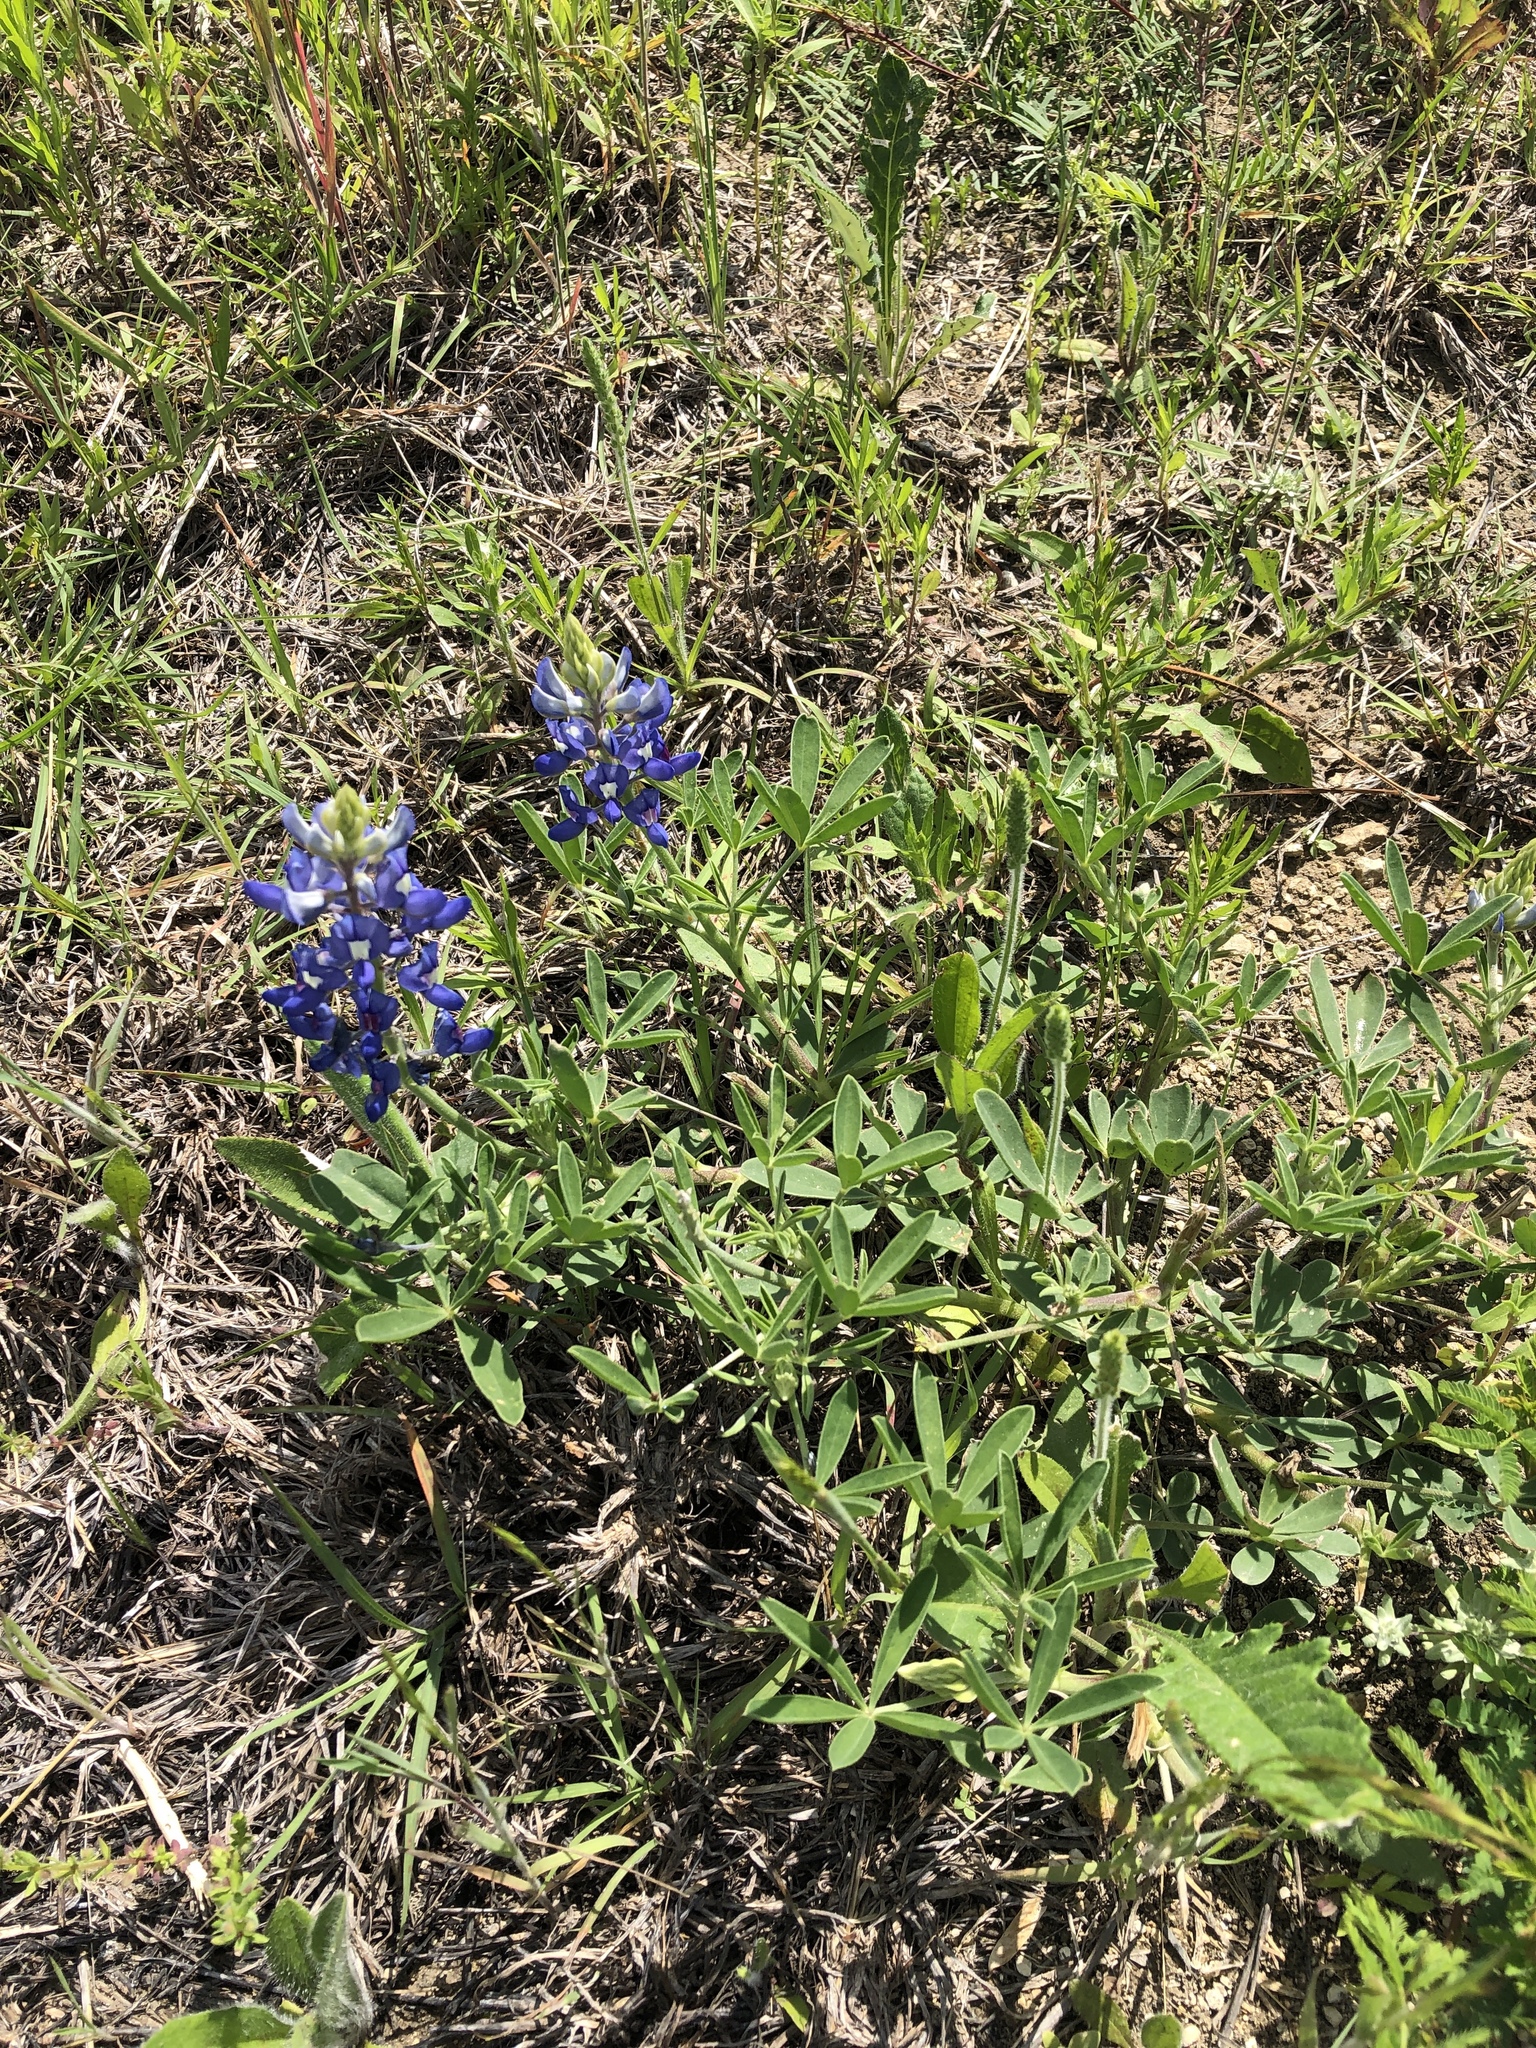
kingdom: Plantae
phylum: Tracheophyta
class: Magnoliopsida
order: Fabales
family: Fabaceae
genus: Lupinus
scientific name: Lupinus texensis
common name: Texas bluebonnet
